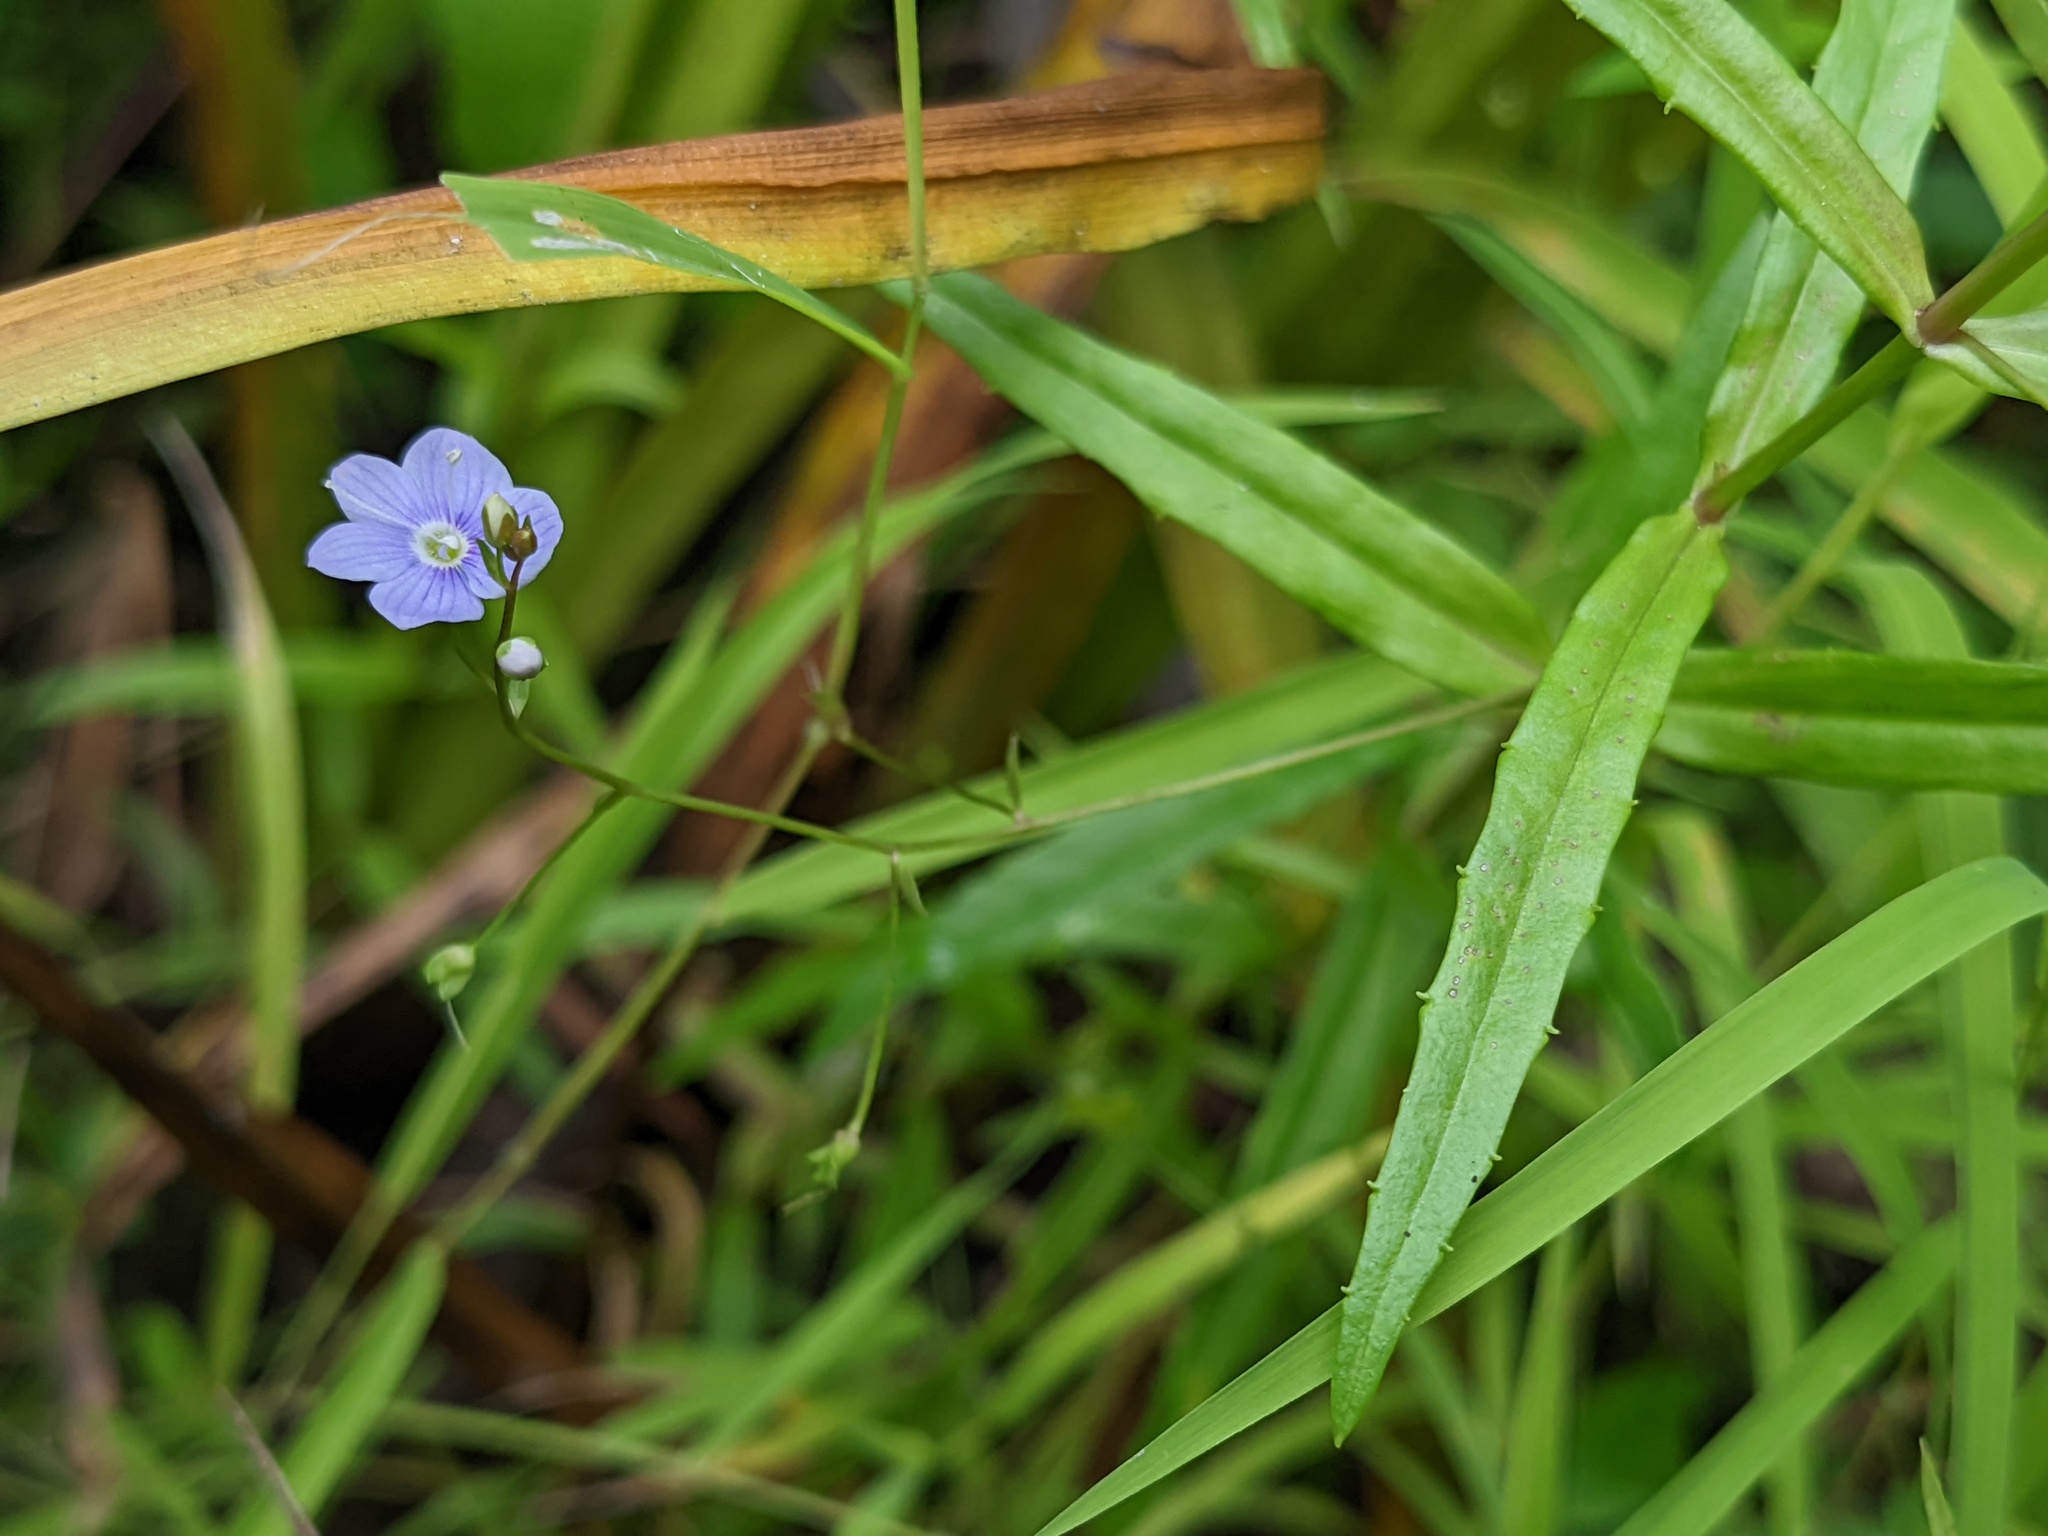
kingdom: Plantae
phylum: Tracheophyta
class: Magnoliopsida
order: Lamiales
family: Plantaginaceae
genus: Veronica
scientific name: Veronica scutellata
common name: Marsh speedwell
